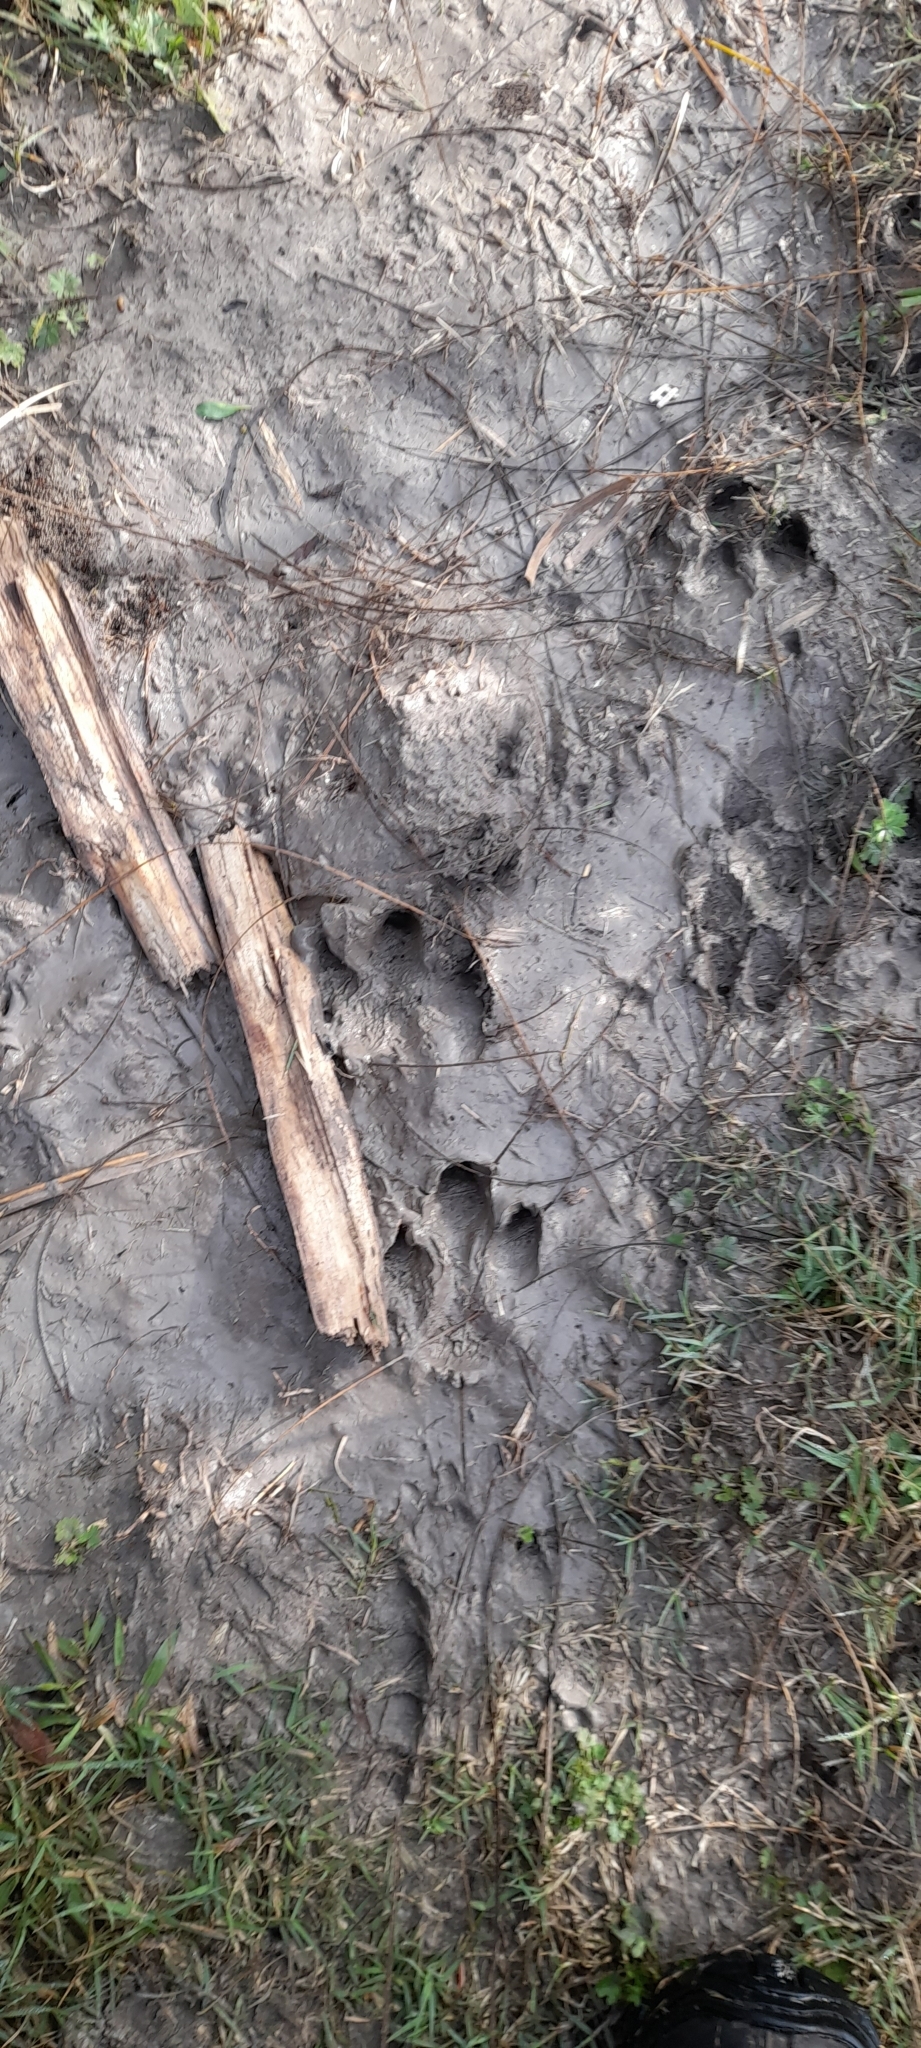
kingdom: Animalia
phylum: Chordata
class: Mammalia
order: Rodentia
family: Caviidae
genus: Hydrochoerus
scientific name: Hydrochoerus hydrochaeris
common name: Capybara
